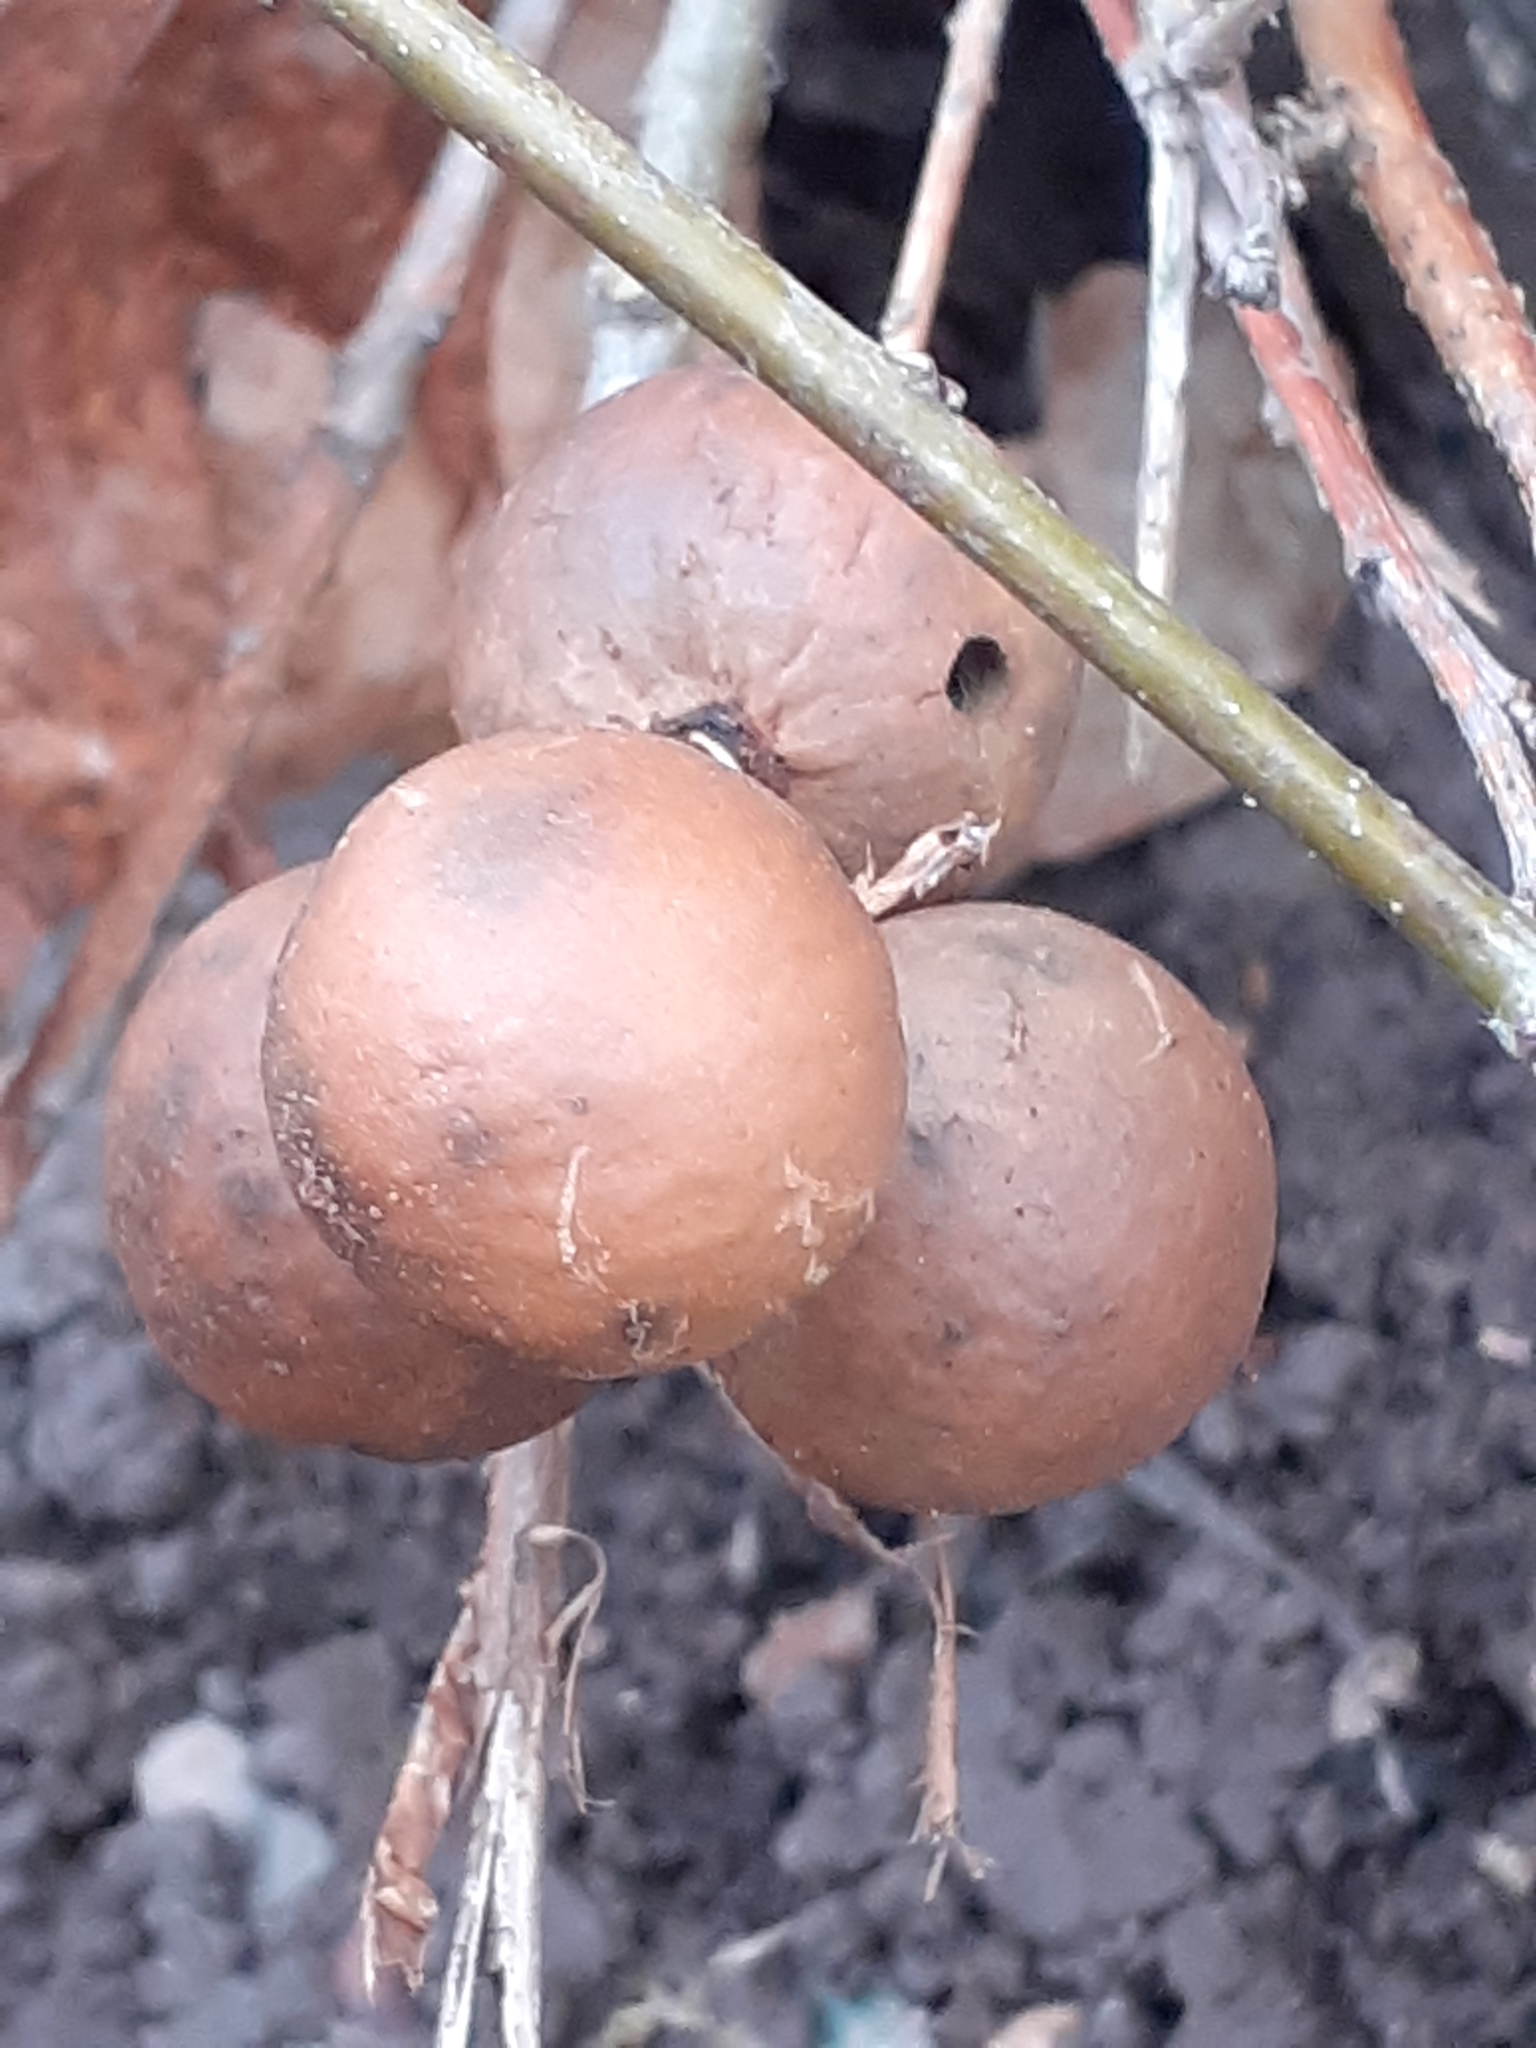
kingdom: Animalia
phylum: Arthropoda
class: Insecta
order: Hymenoptera
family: Cynipidae
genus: Andricus
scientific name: Andricus kollari
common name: Marble gall
